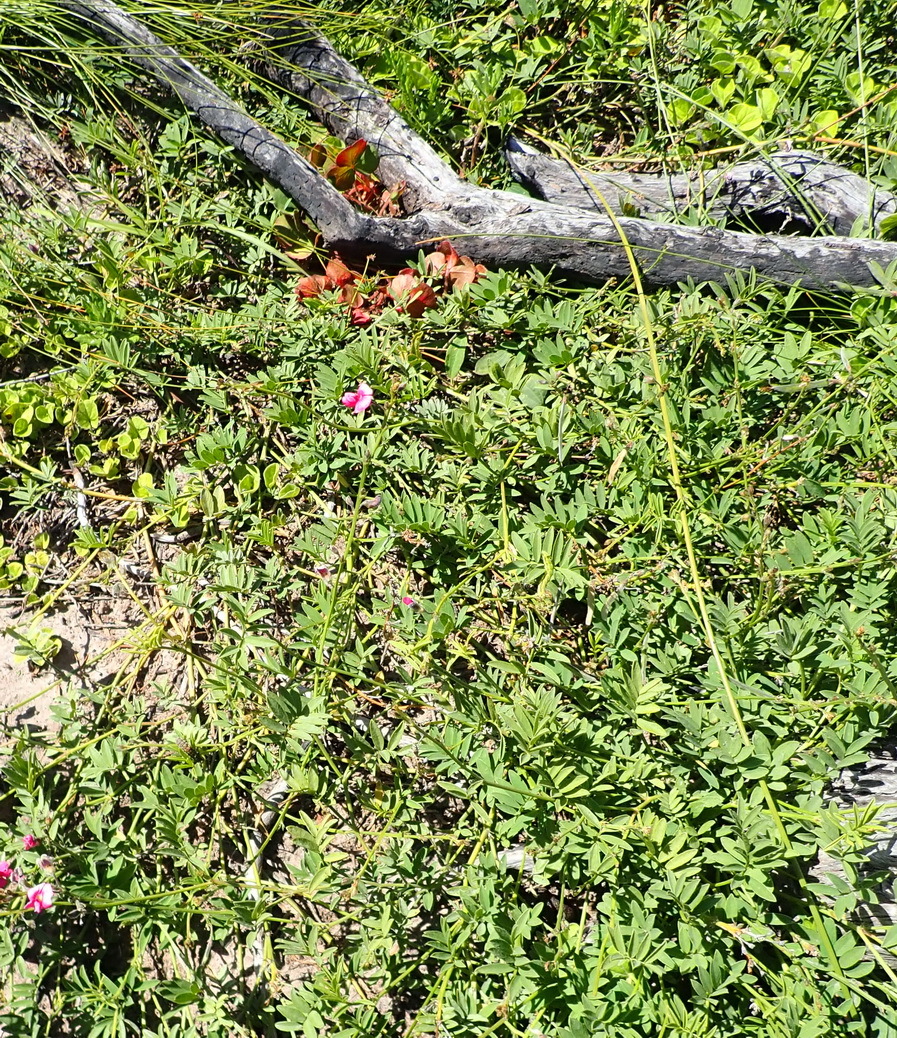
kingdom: Plantae
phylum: Tracheophyta
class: Magnoliopsida
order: Fabales
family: Fabaceae
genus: Tephrosia
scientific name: Tephrosia capensis
